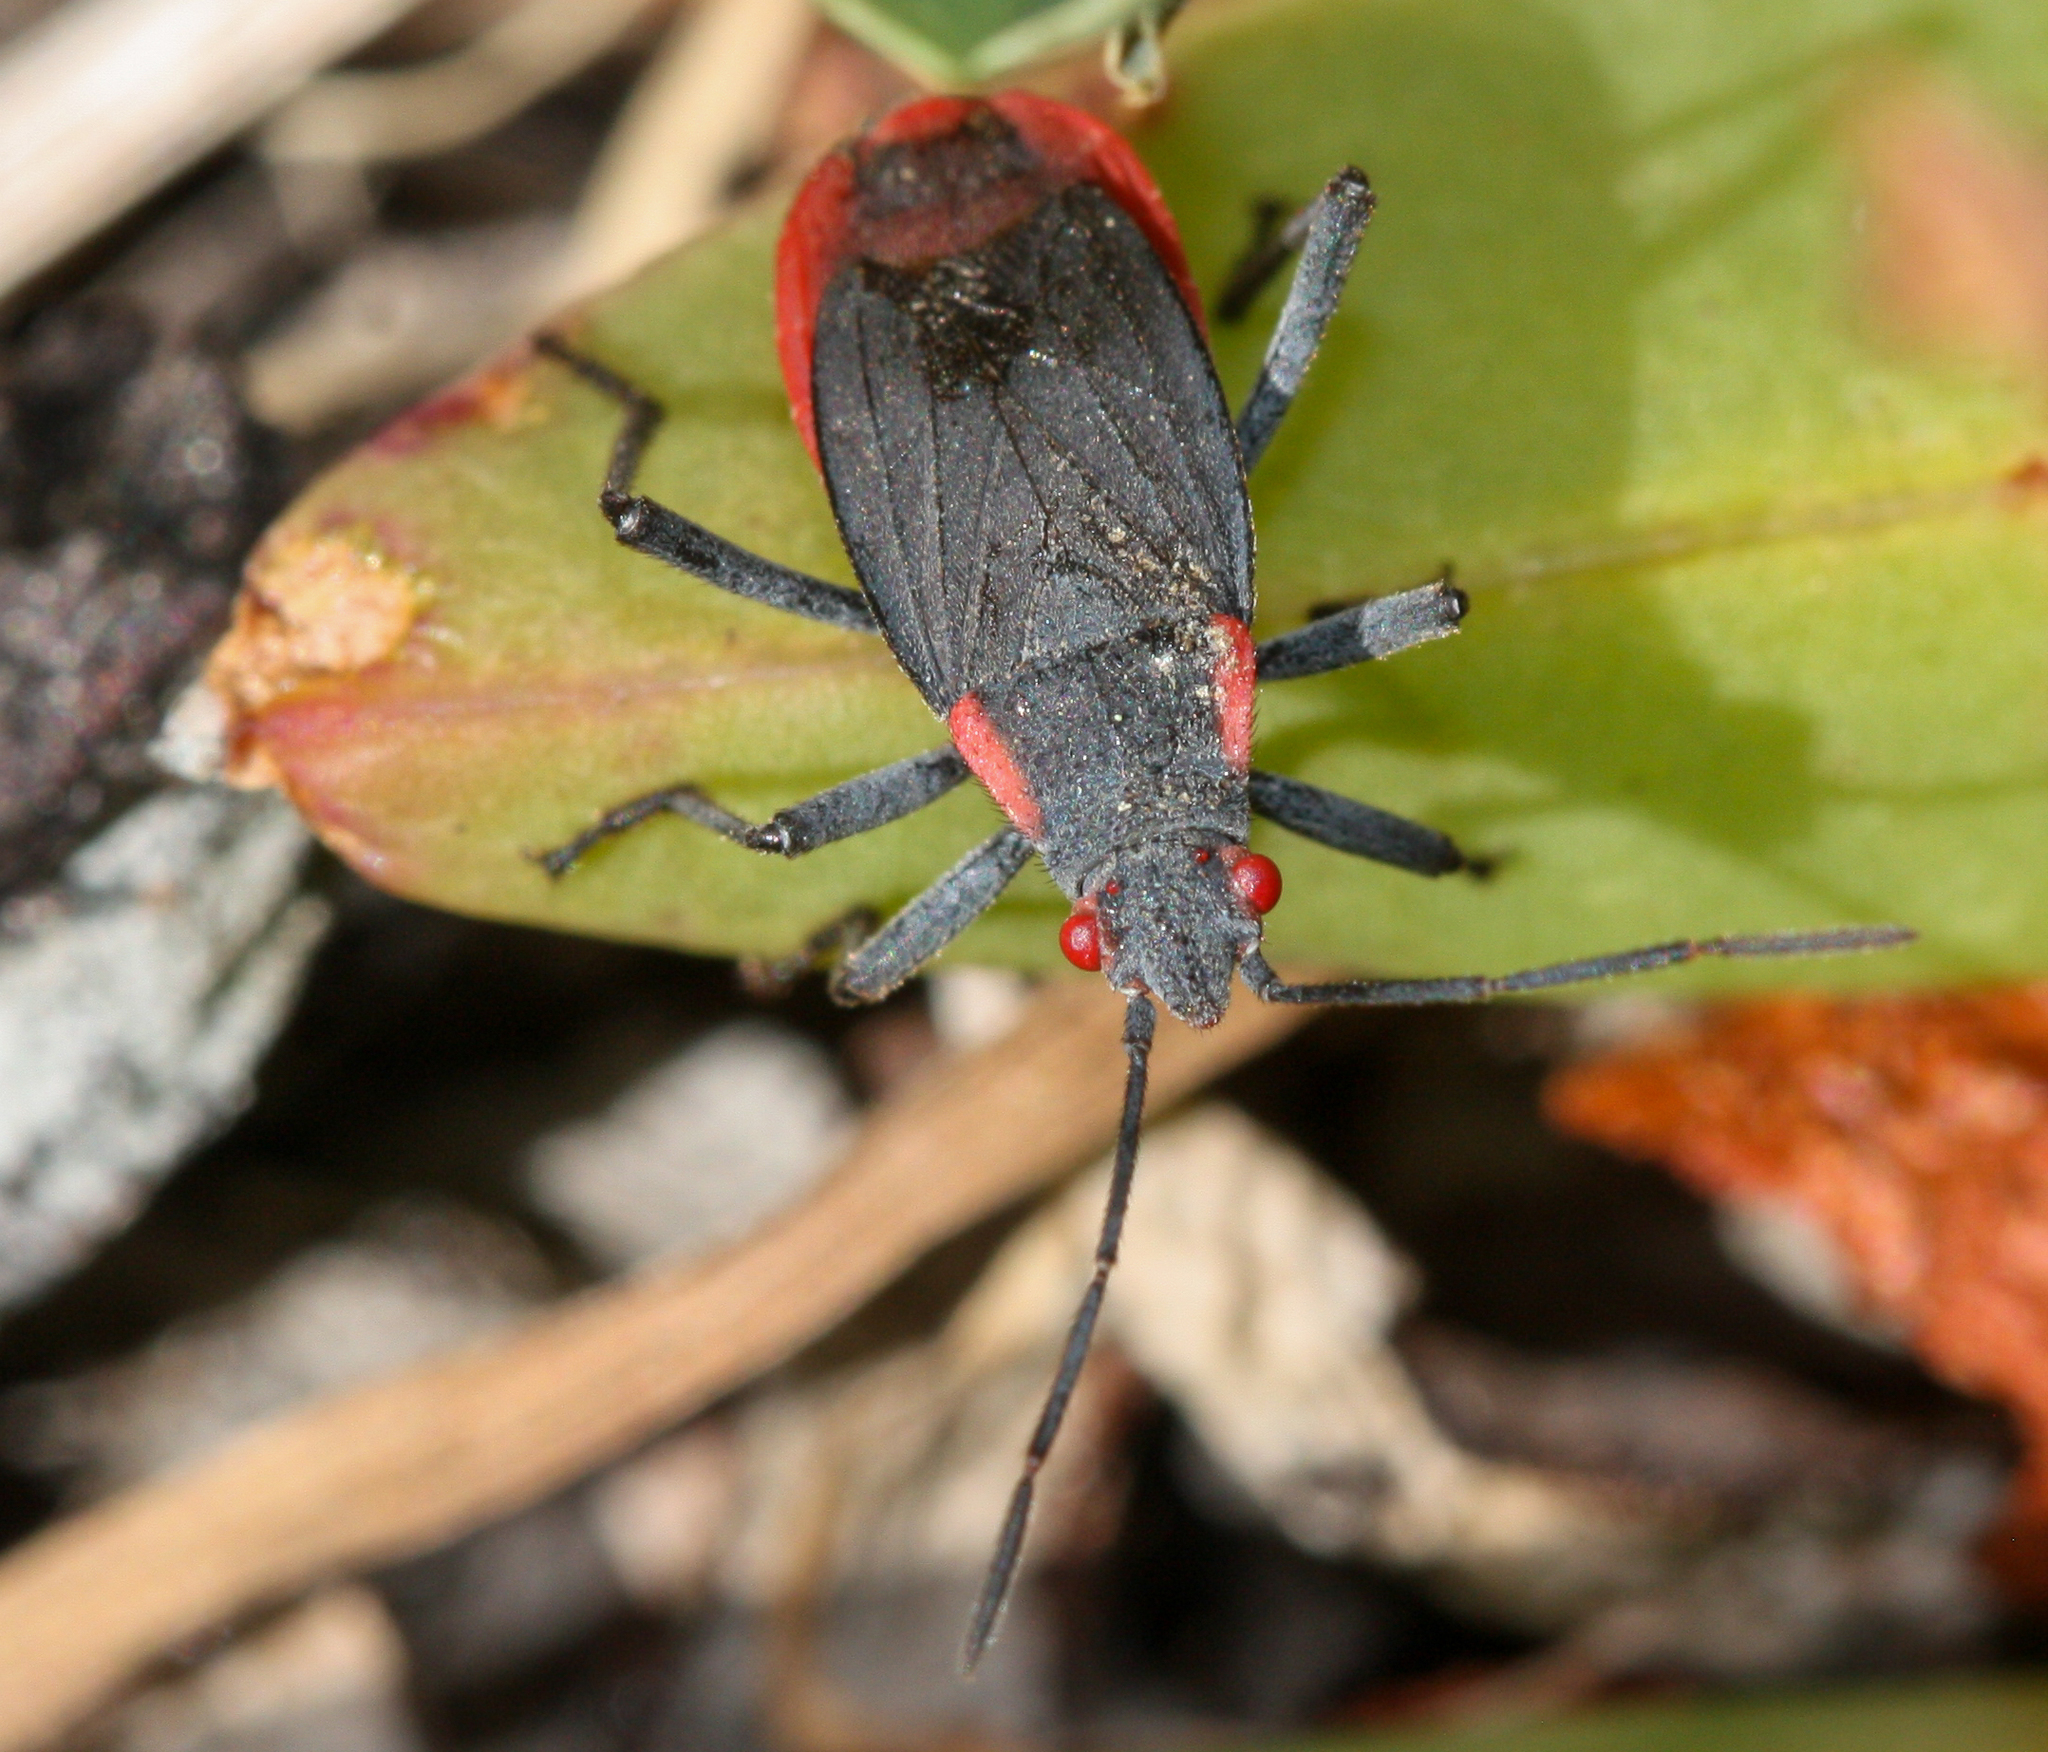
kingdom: Animalia
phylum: Arthropoda
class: Insecta
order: Hemiptera
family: Rhopalidae
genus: Jadera
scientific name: Jadera haematoloma
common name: Red-shouldered bug
